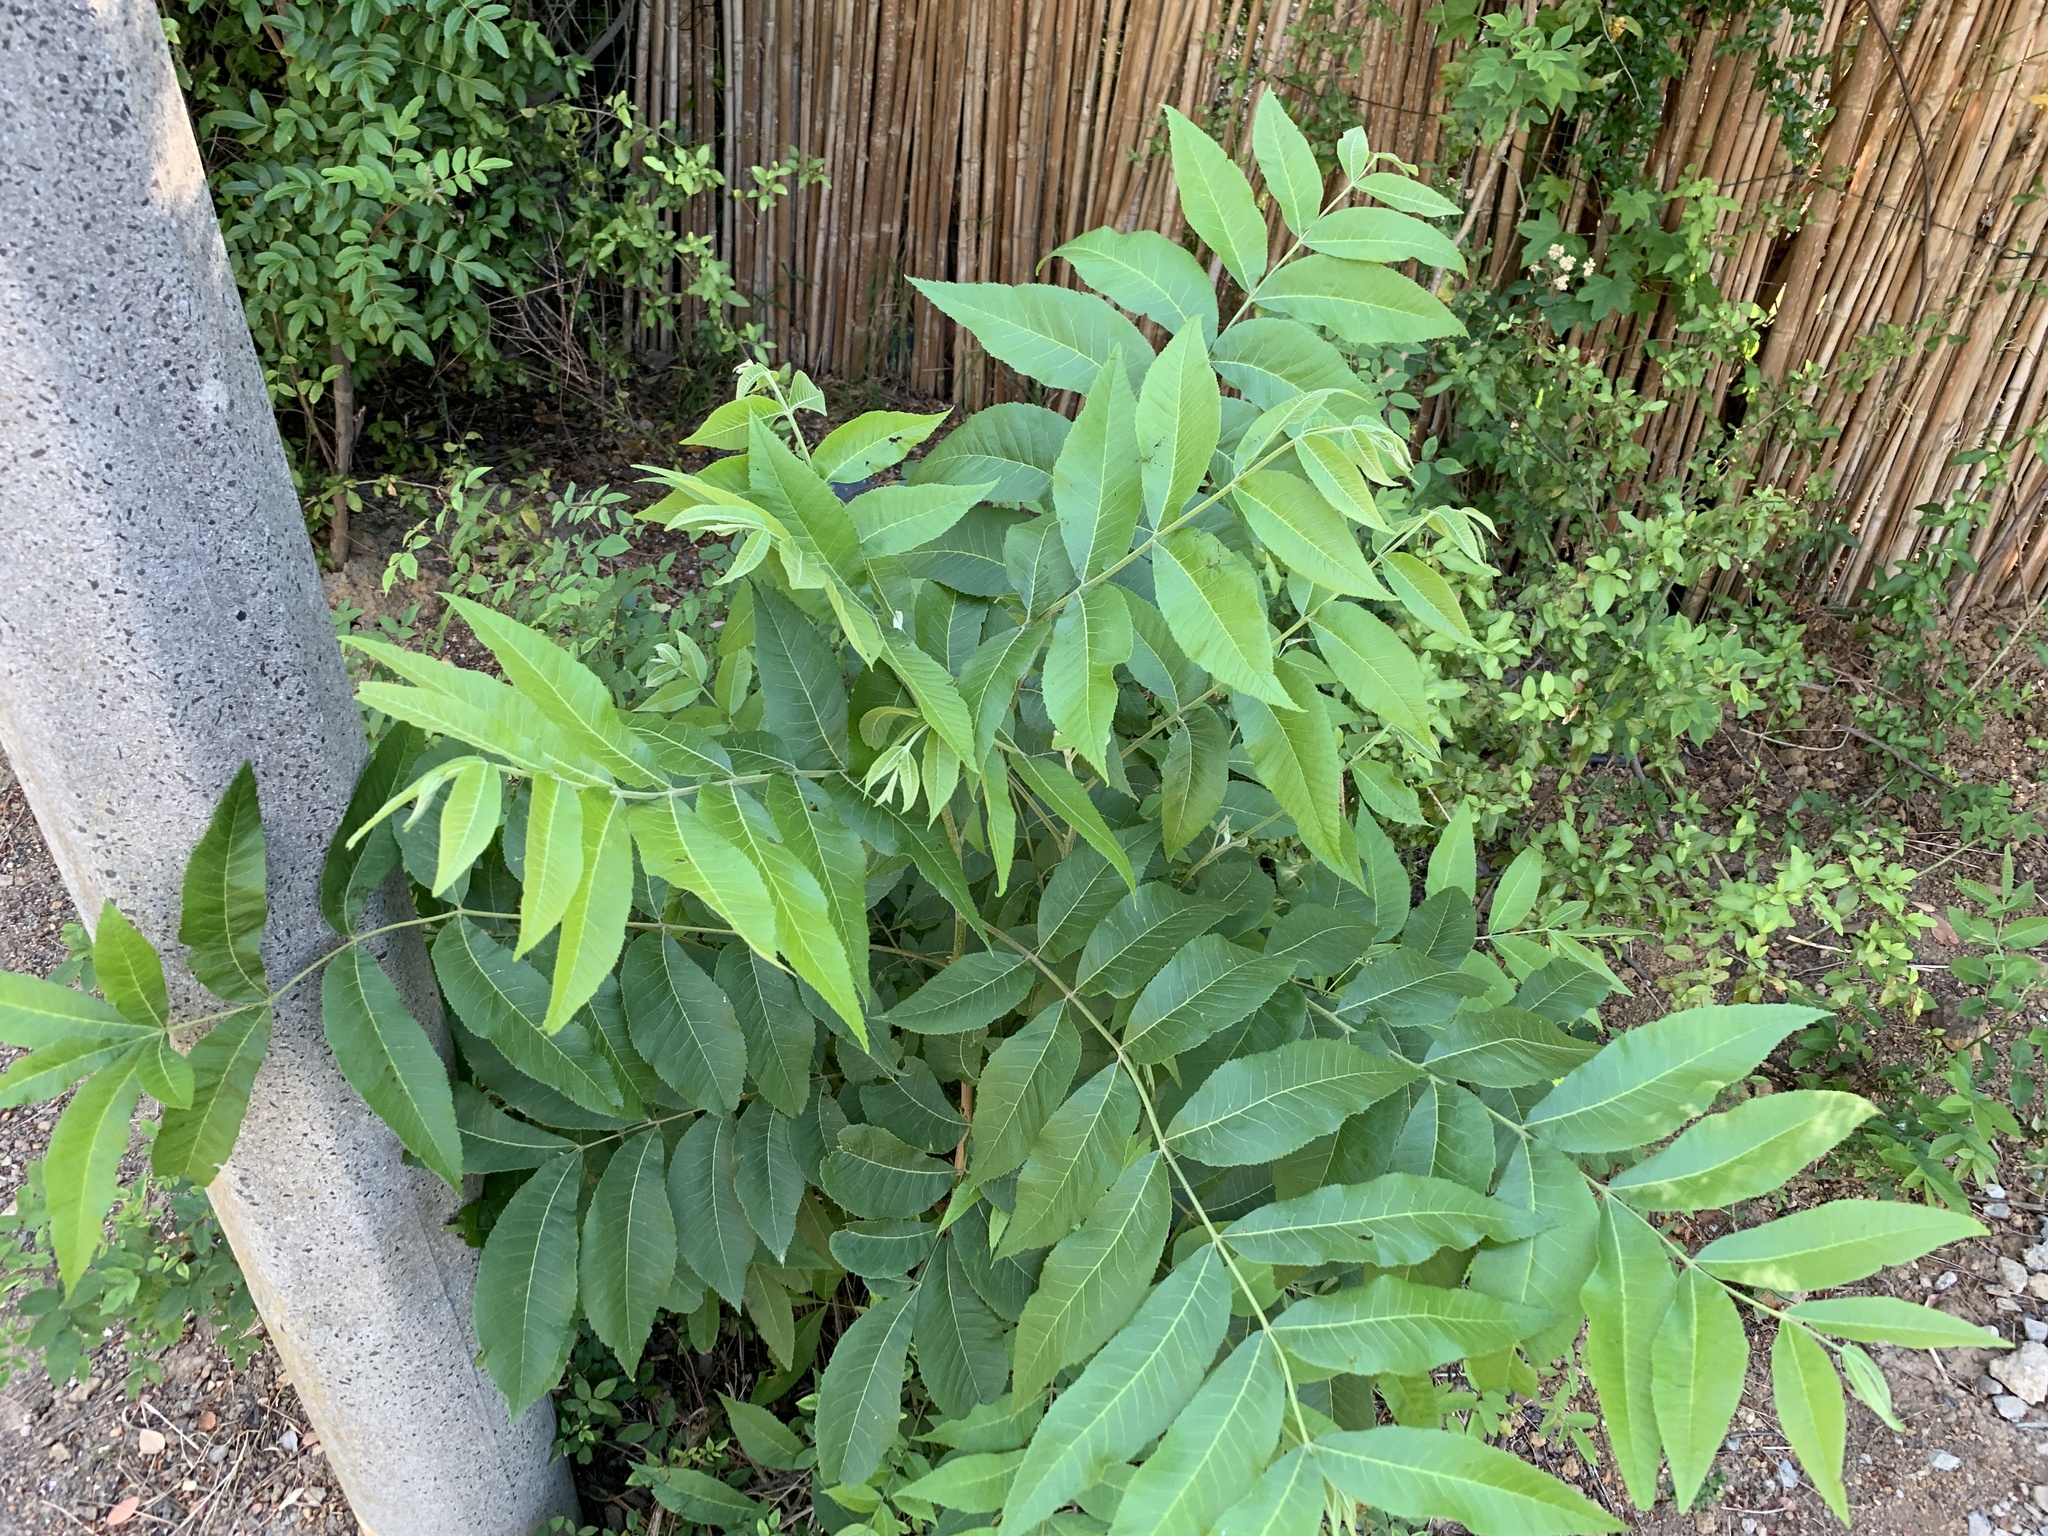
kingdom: Plantae
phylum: Tracheophyta
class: Magnoliopsida
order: Fagales
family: Juglandaceae
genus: Carya
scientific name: Carya illinoinensis
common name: Pecan
